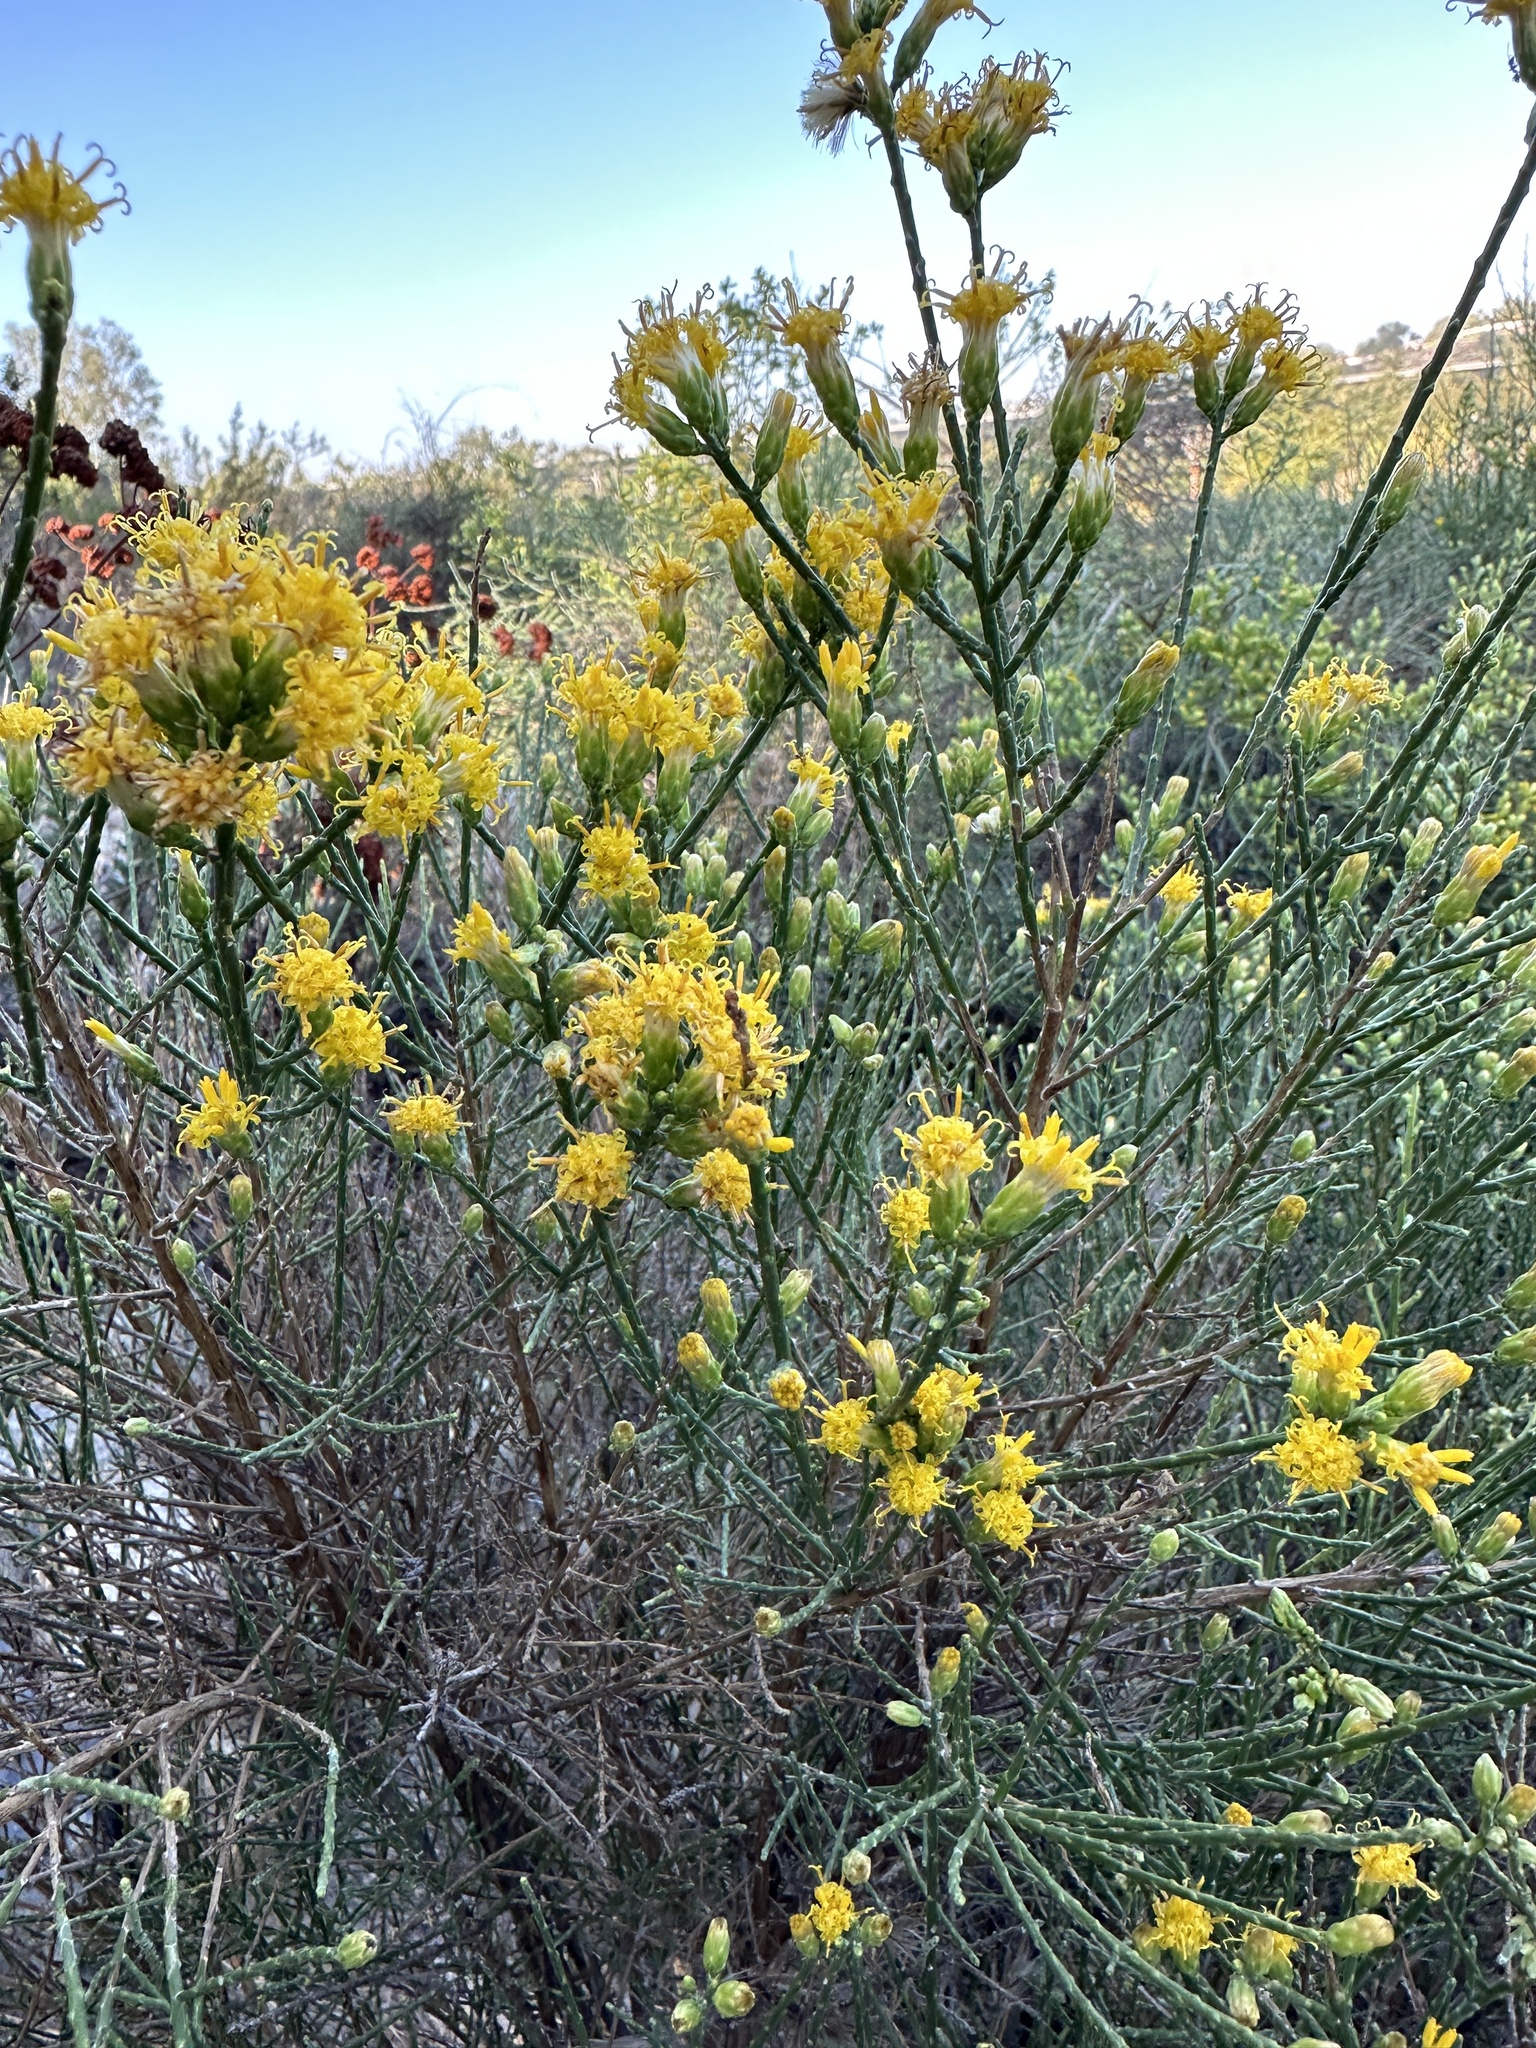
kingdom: Plantae
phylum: Tracheophyta
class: Magnoliopsida
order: Asterales
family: Asteraceae
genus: Lepidospartum
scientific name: Lepidospartum squamatum
